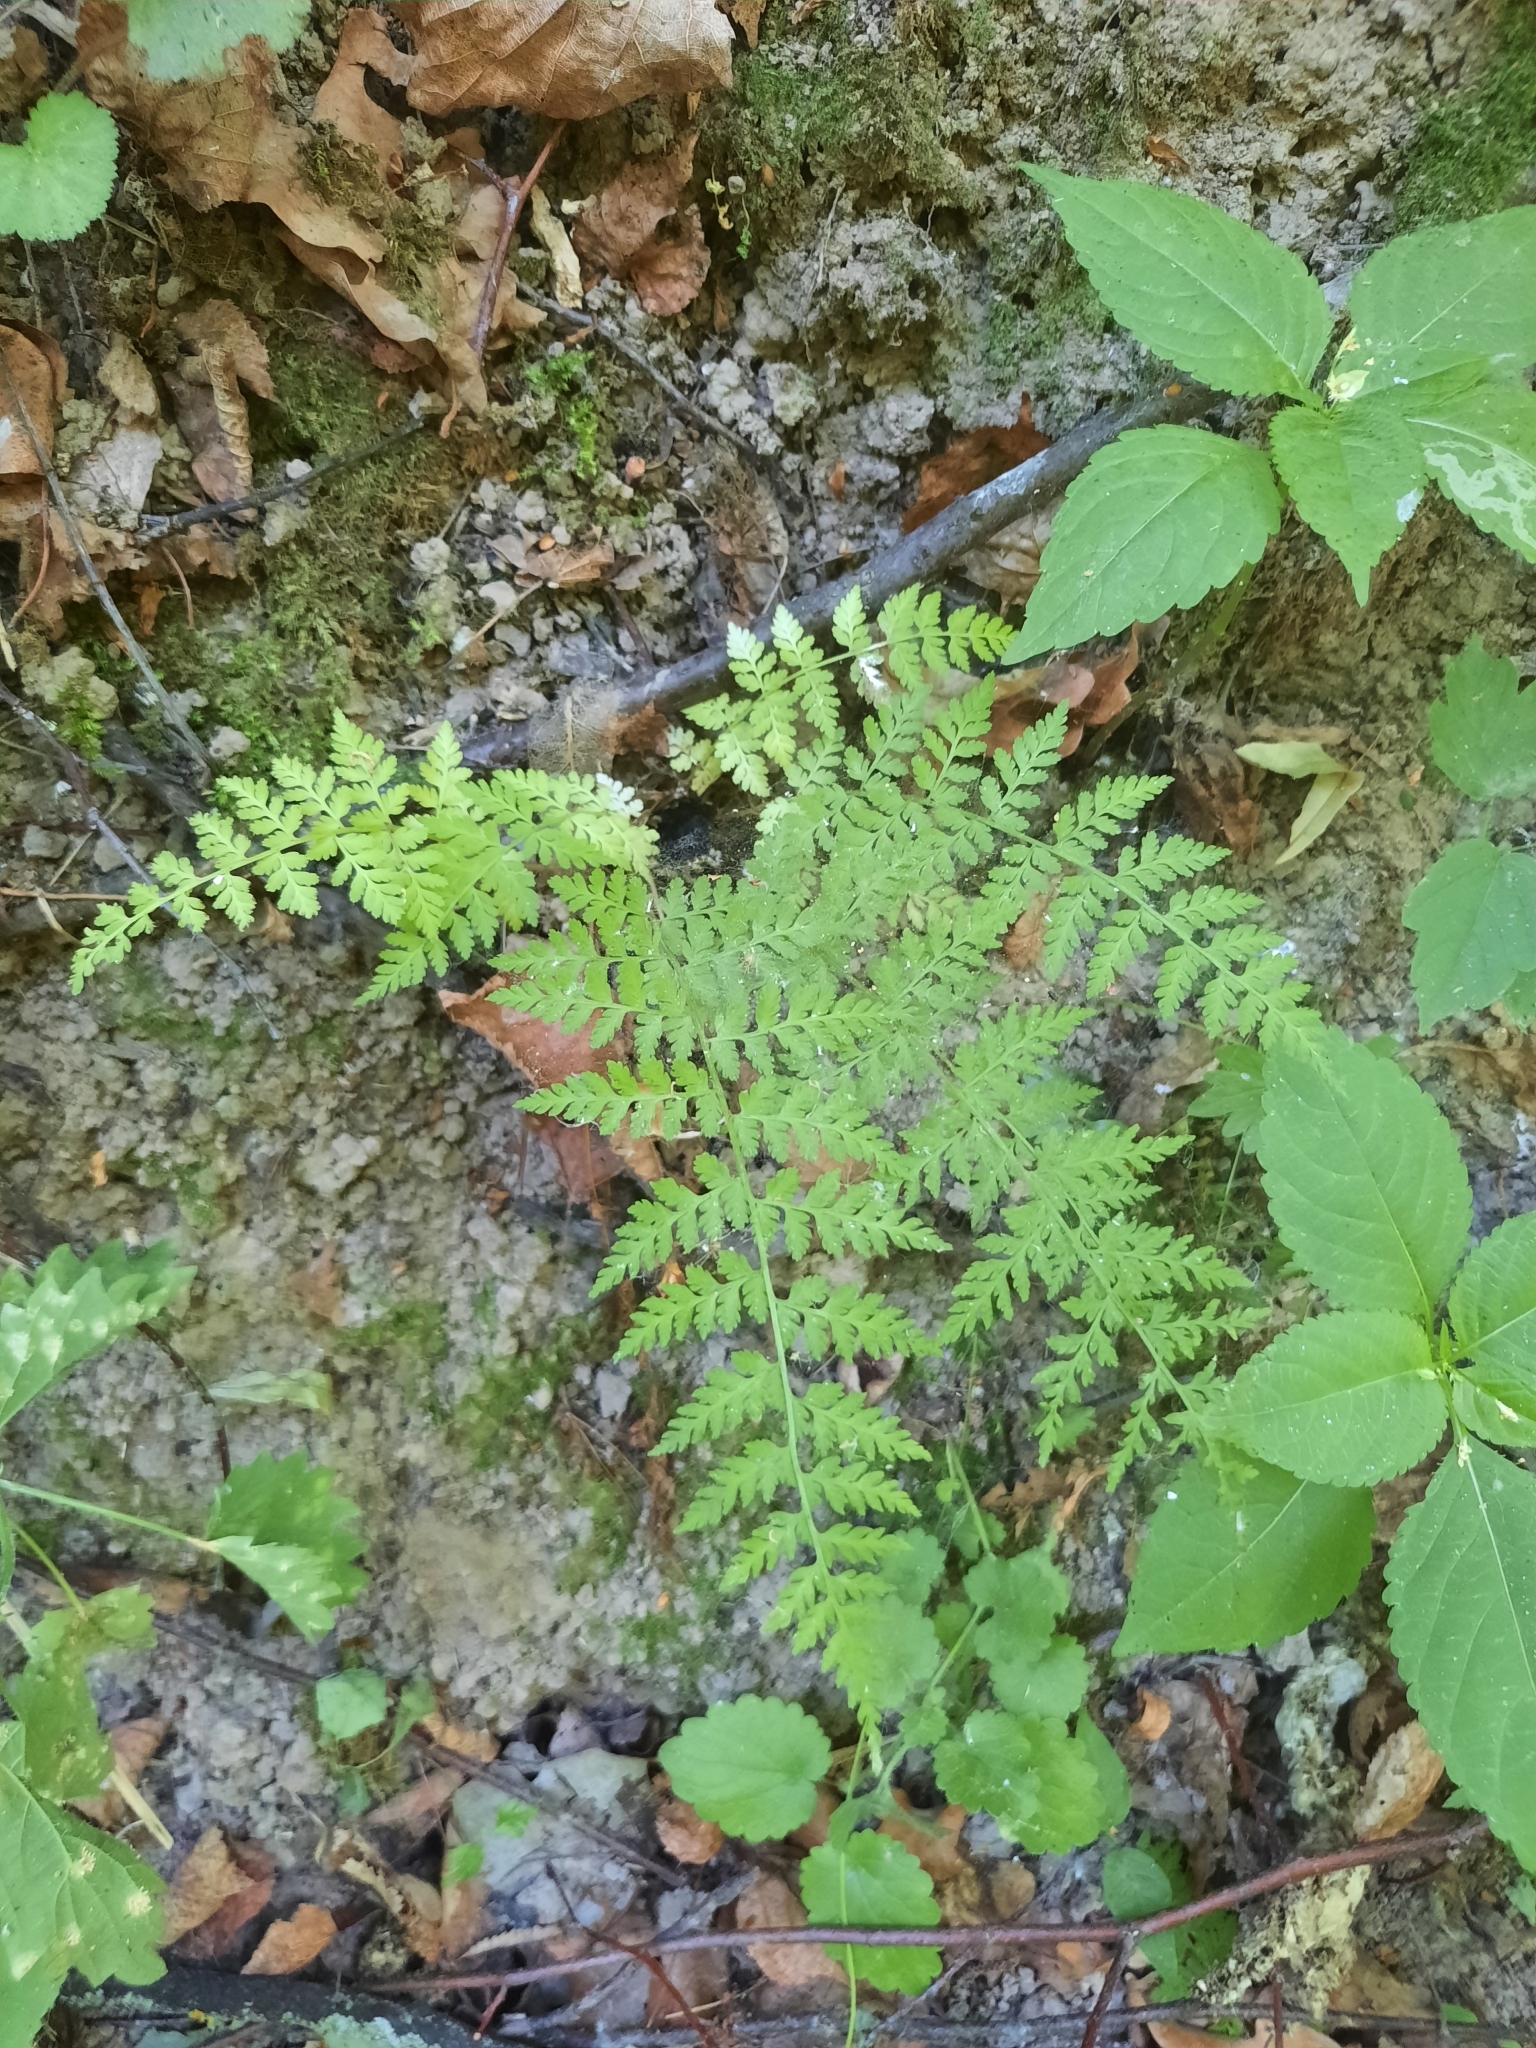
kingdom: Plantae
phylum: Tracheophyta
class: Polypodiopsida
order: Polypodiales
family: Cystopteridaceae
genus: Cystopteris
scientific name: Cystopteris fragilis
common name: Brittle bladder fern
